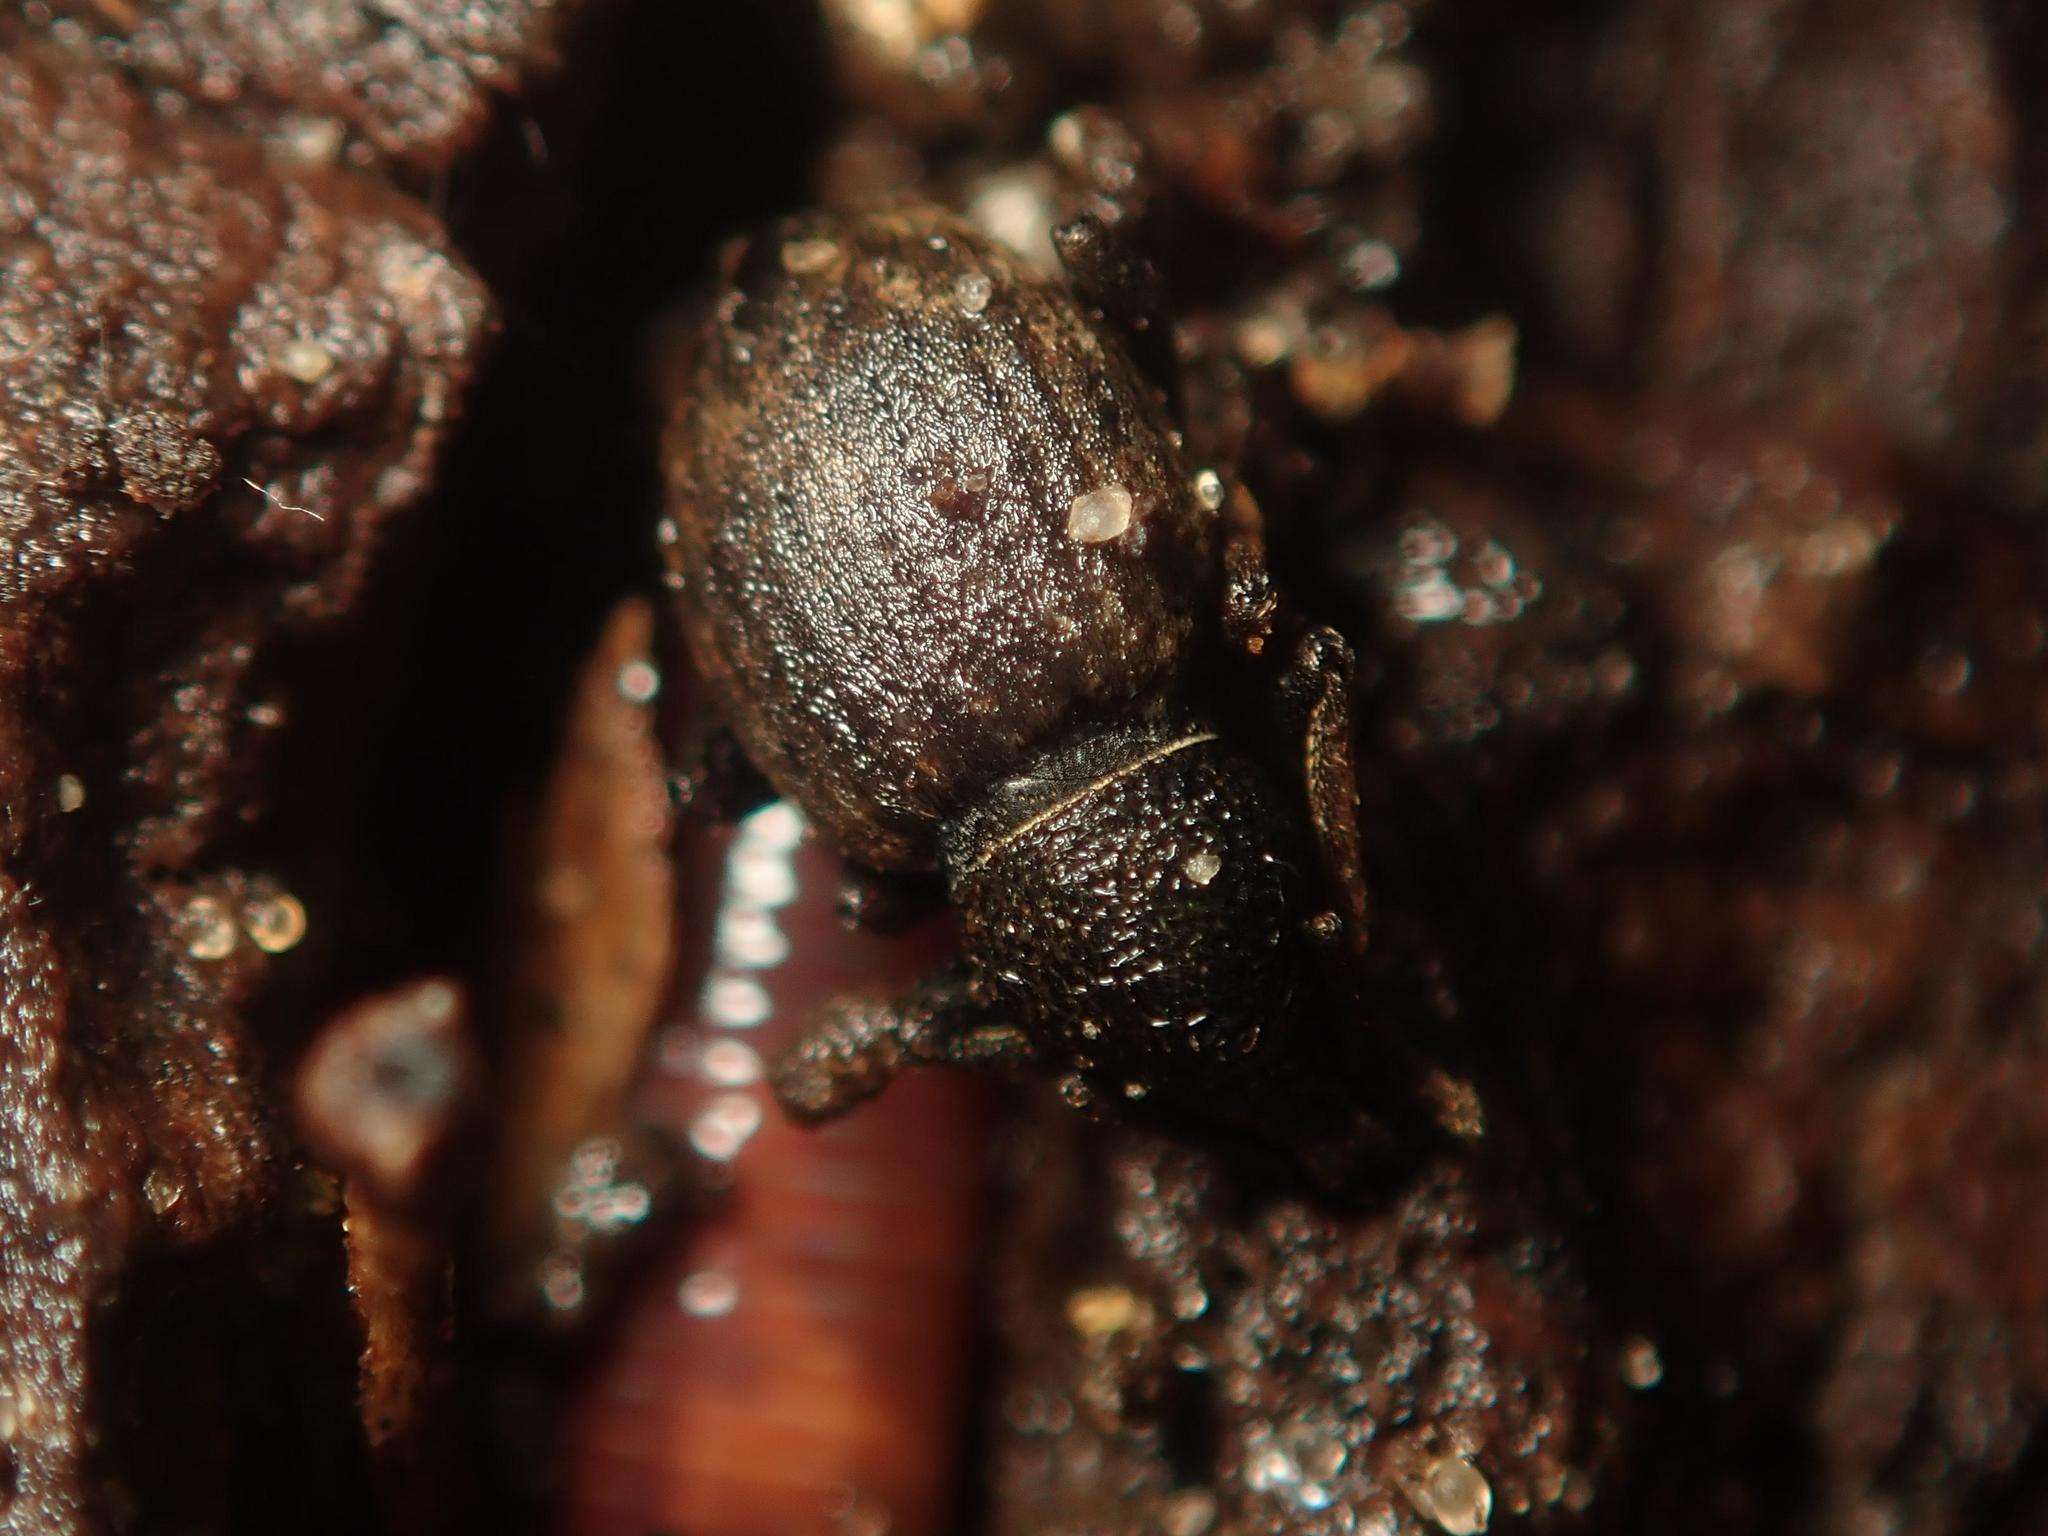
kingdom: Animalia
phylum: Arthropoda
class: Insecta
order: Coleoptera
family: Curculionidae
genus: Otiorhynchus
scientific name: Otiorhynchus raucus
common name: Weevil
